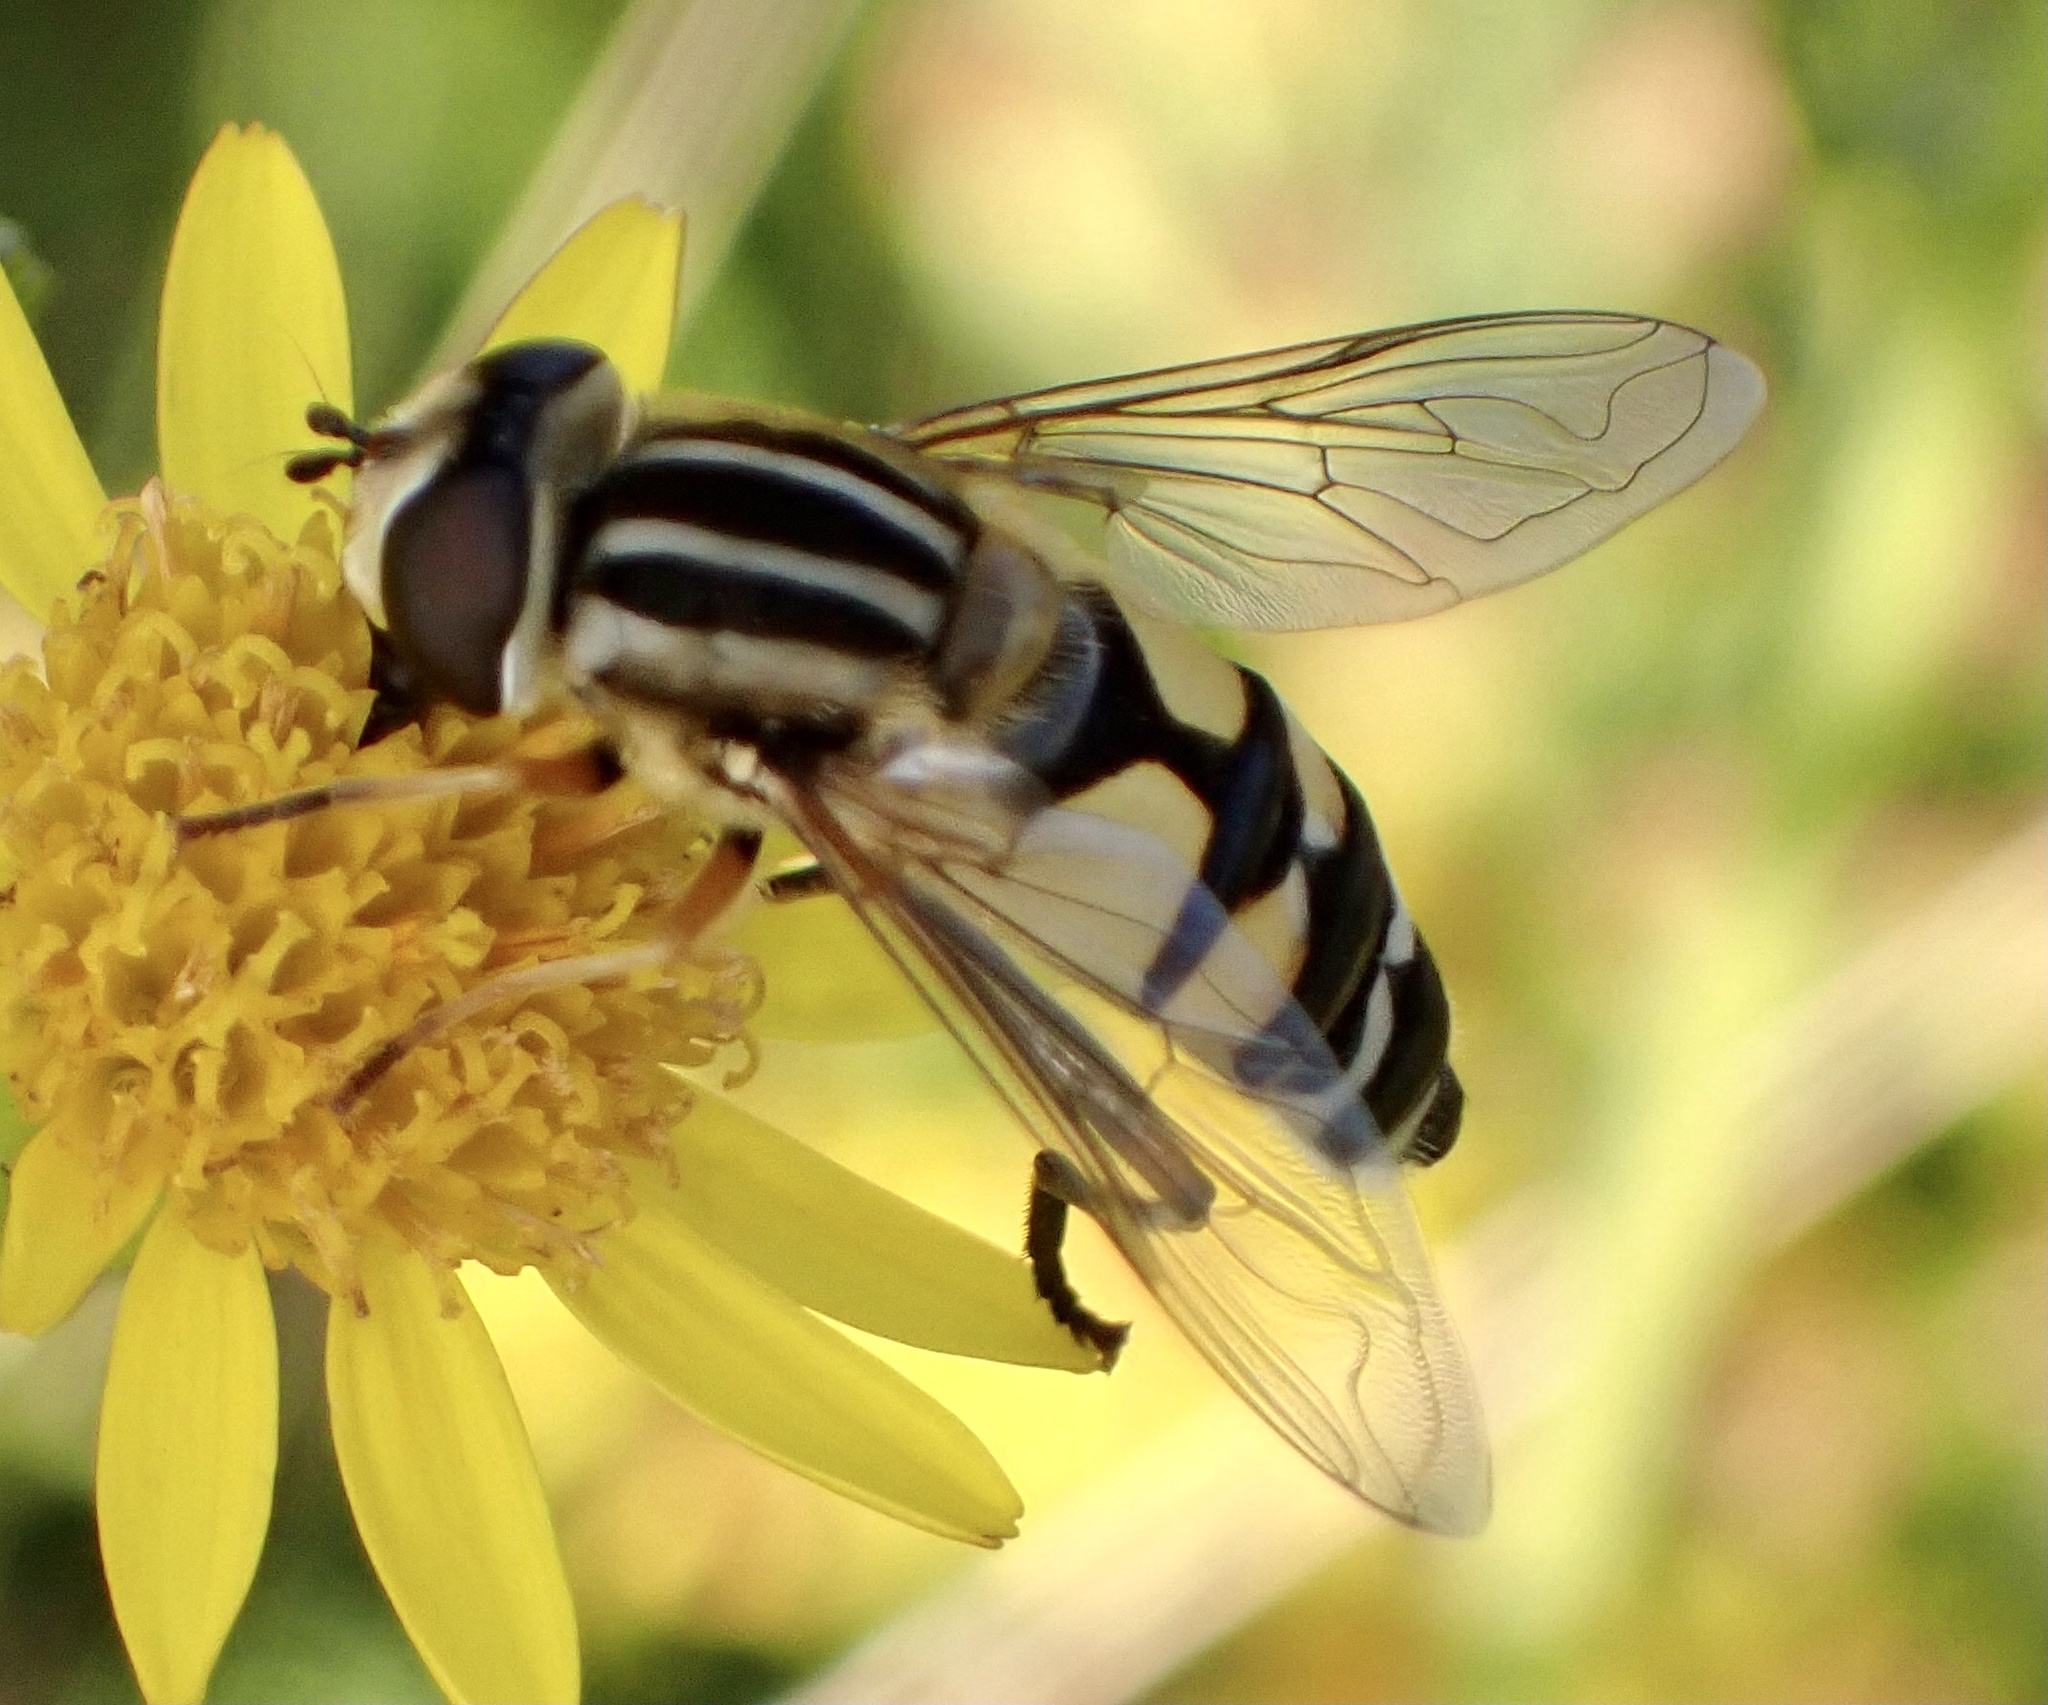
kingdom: Animalia
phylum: Arthropoda
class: Insecta
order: Diptera
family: Syrphidae
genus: Helophilus
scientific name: Helophilus trivittatus
